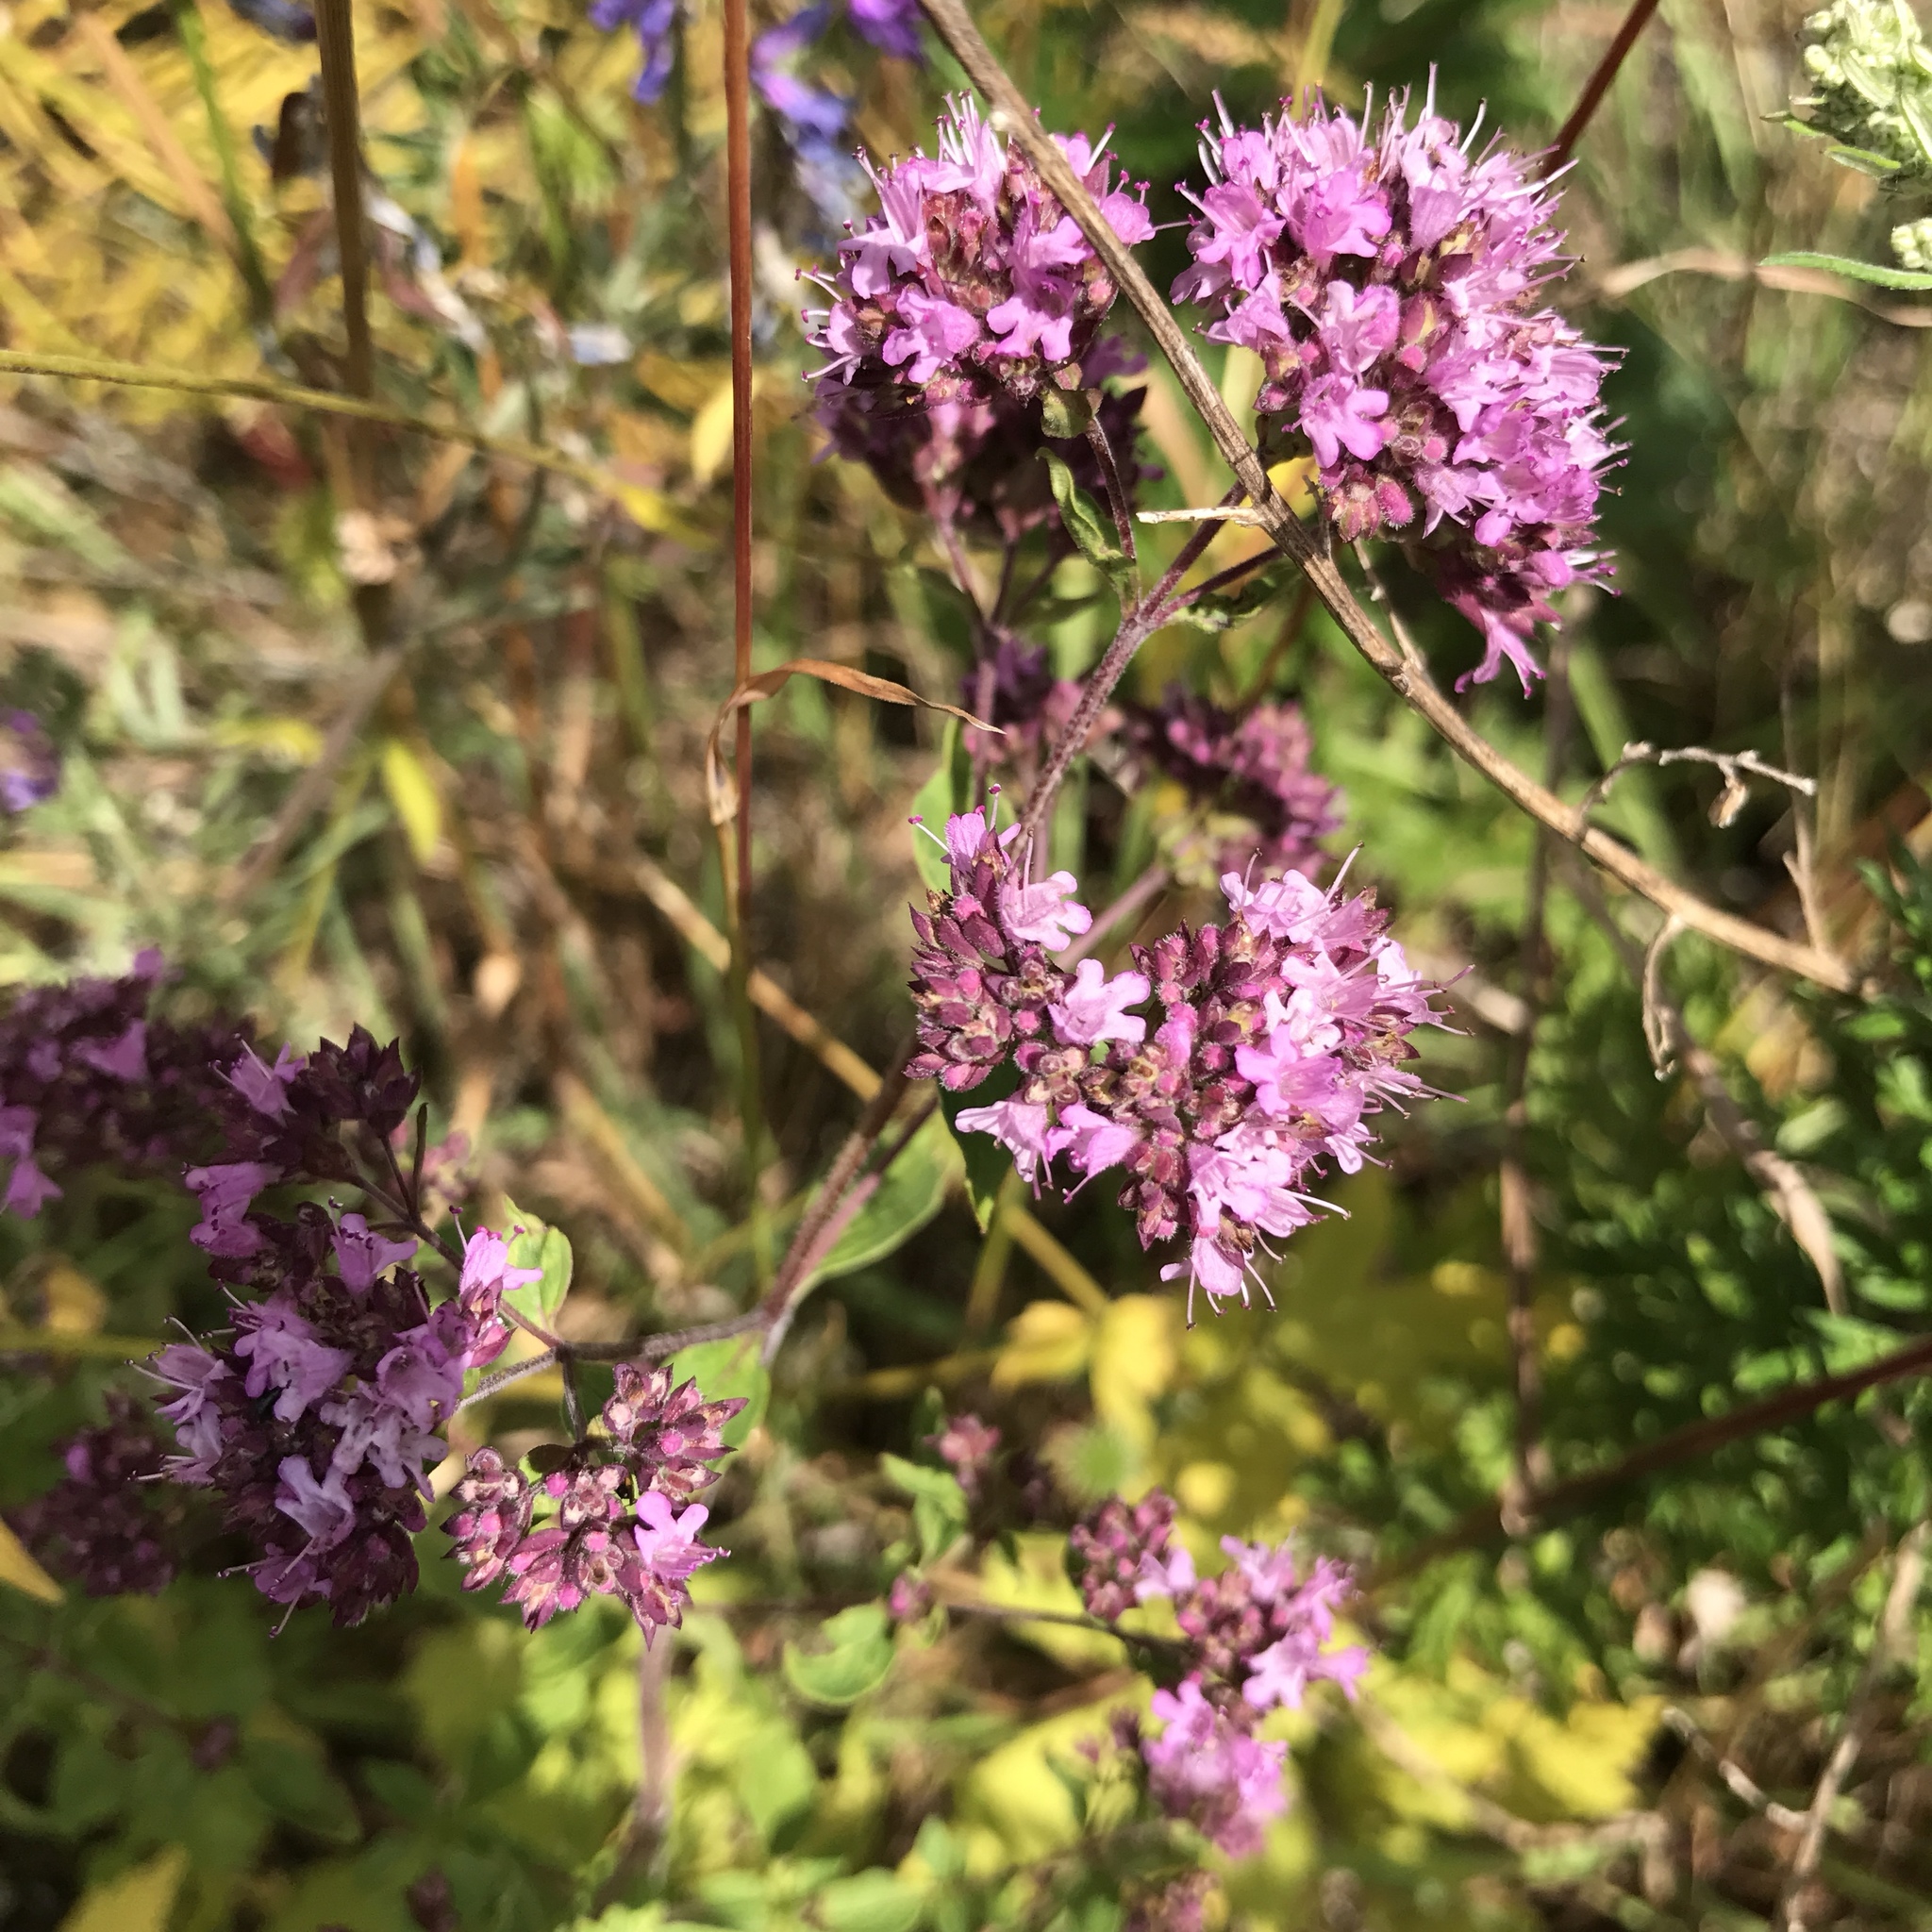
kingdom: Plantae
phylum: Tracheophyta
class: Magnoliopsida
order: Lamiales
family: Lamiaceae
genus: Origanum
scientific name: Origanum vulgare
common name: Wild marjoram
